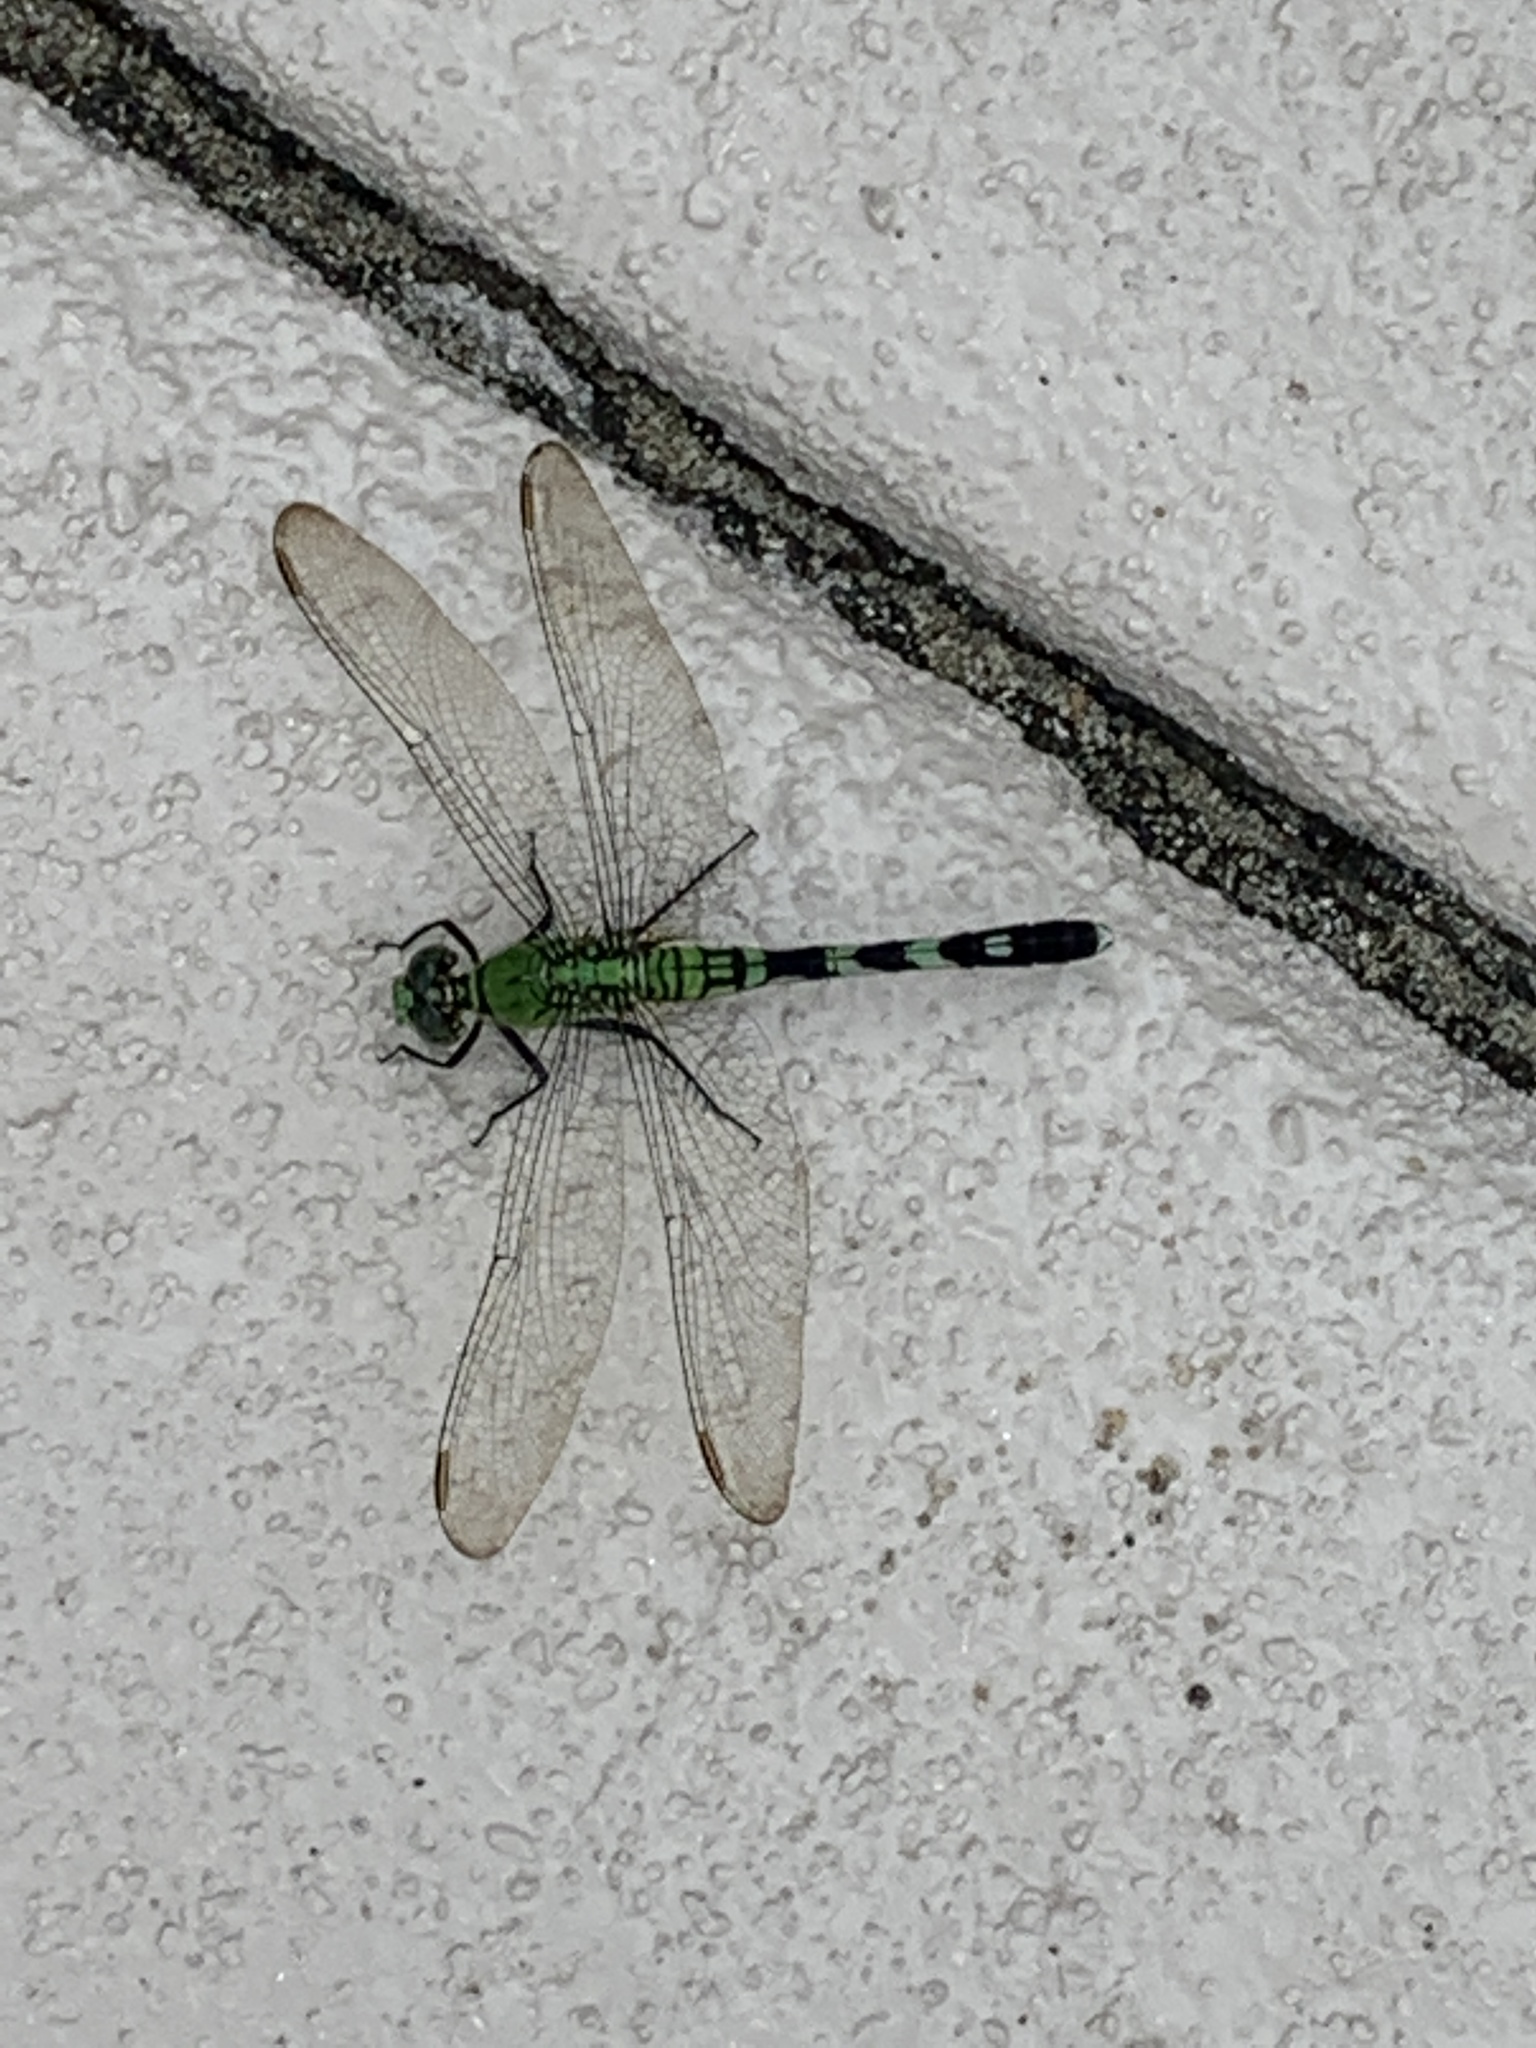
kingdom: Animalia
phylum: Arthropoda
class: Insecta
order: Odonata
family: Libellulidae
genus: Erythemis
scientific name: Erythemis simplicicollis
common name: Eastern pondhawk
